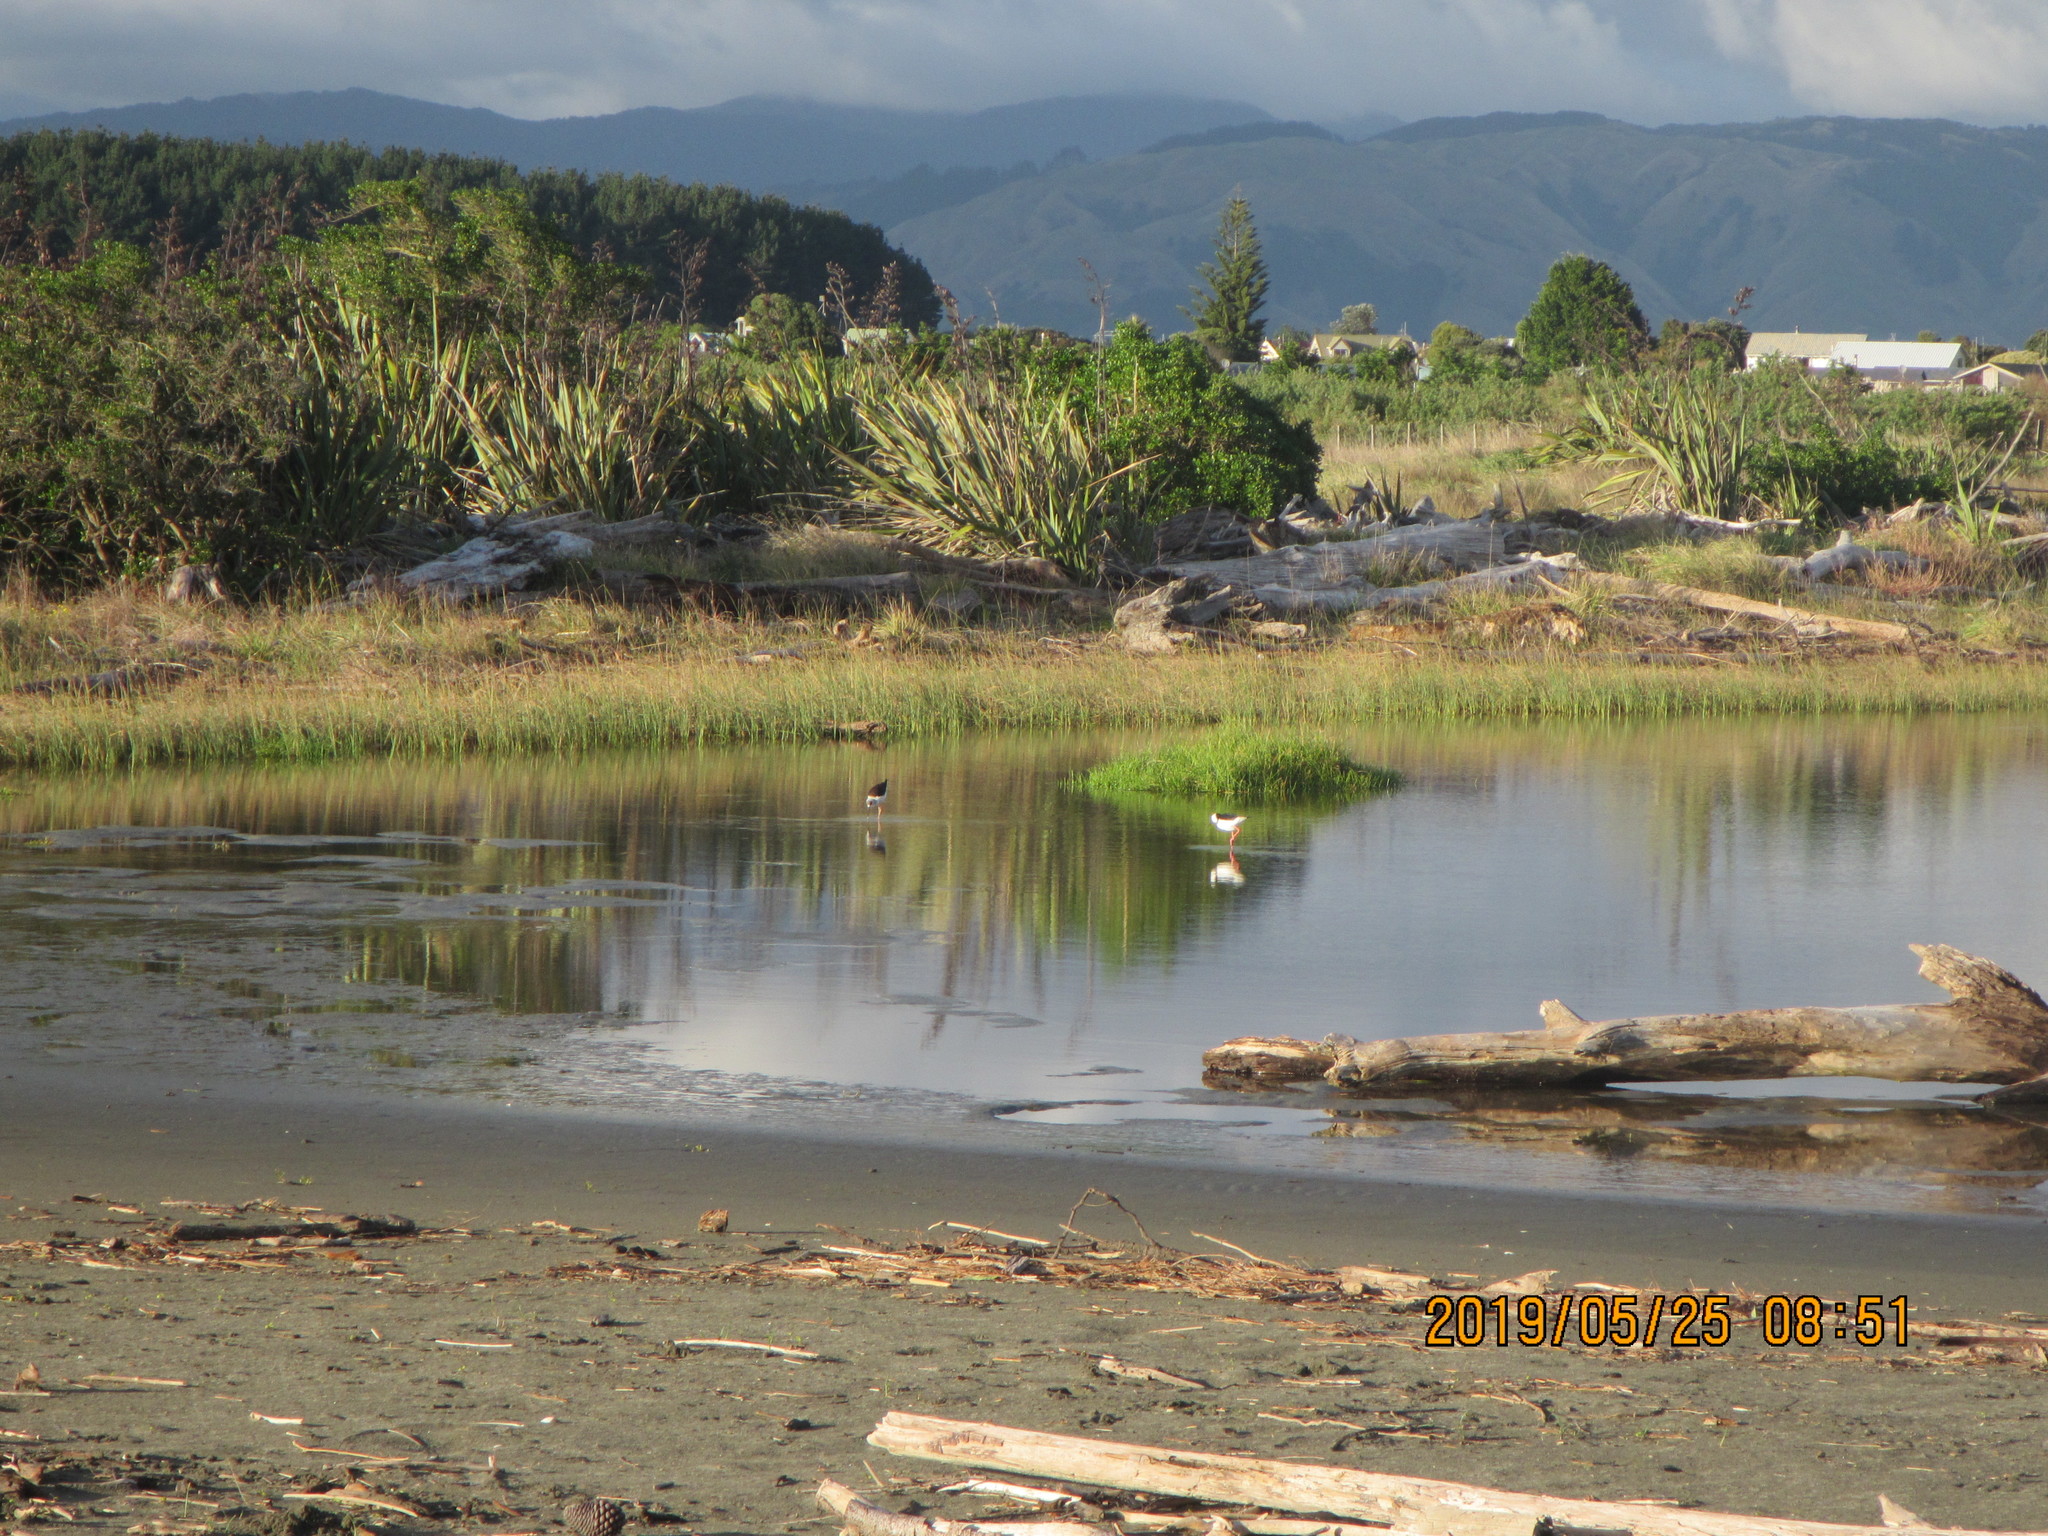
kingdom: Animalia
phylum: Chordata
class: Aves
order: Charadriiformes
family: Recurvirostridae
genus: Himantopus
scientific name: Himantopus leucocephalus
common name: White-headed stilt
